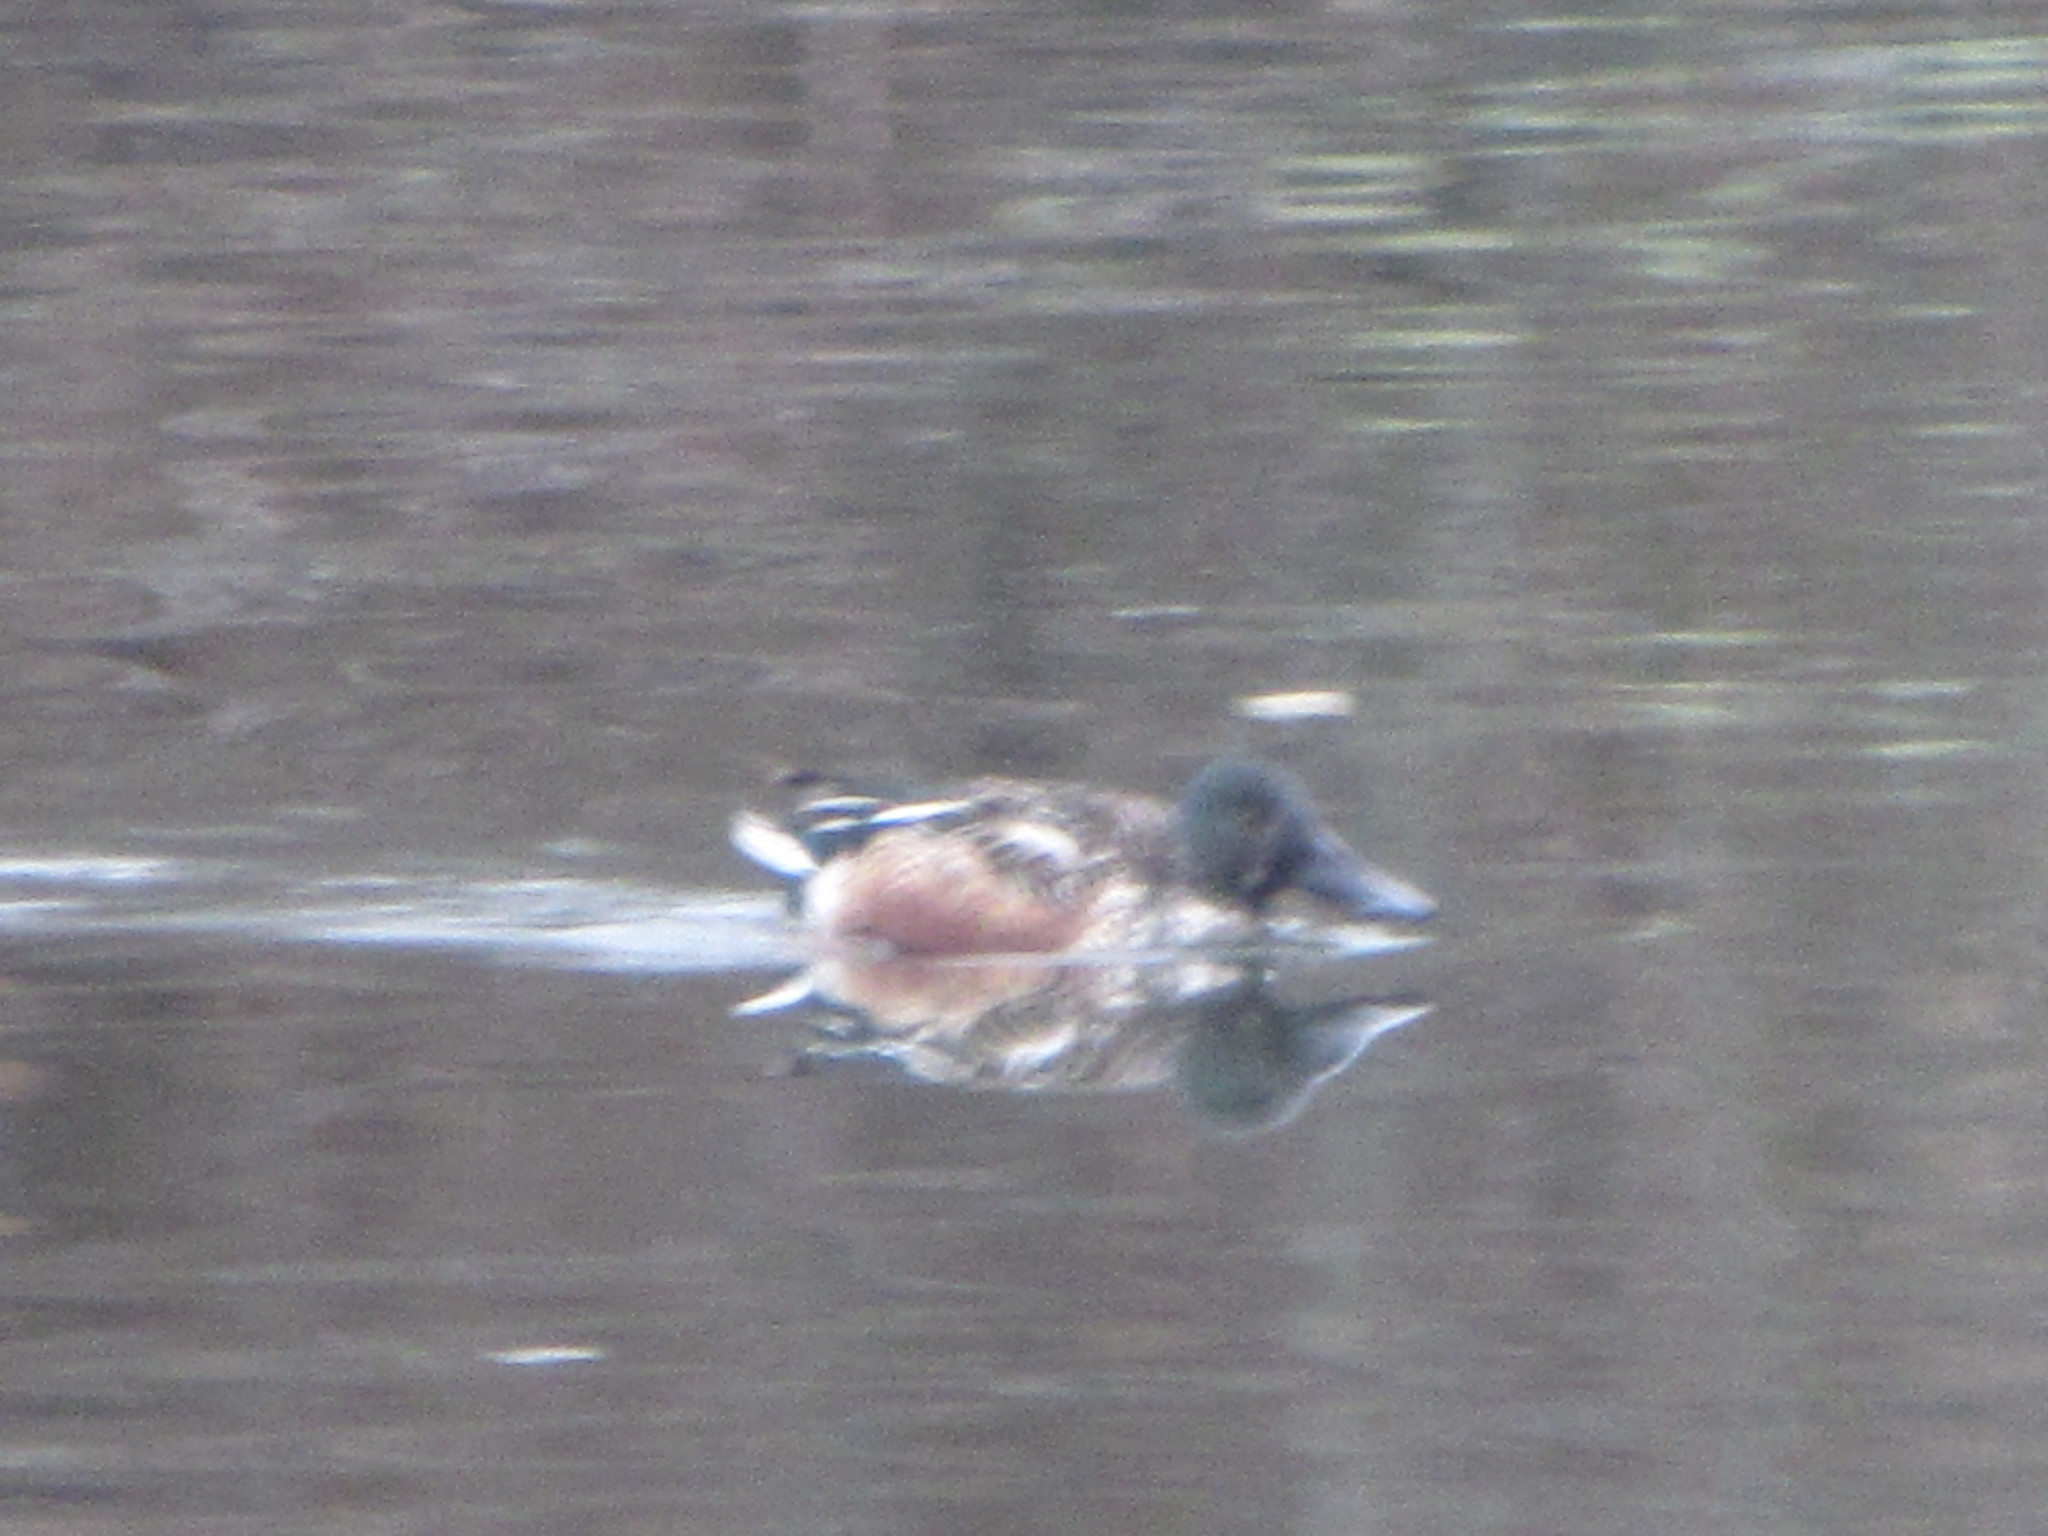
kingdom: Animalia
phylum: Chordata
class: Aves
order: Anseriformes
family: Anatidae
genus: Spatula
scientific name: Spatula clypeata
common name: Northern shoveler
